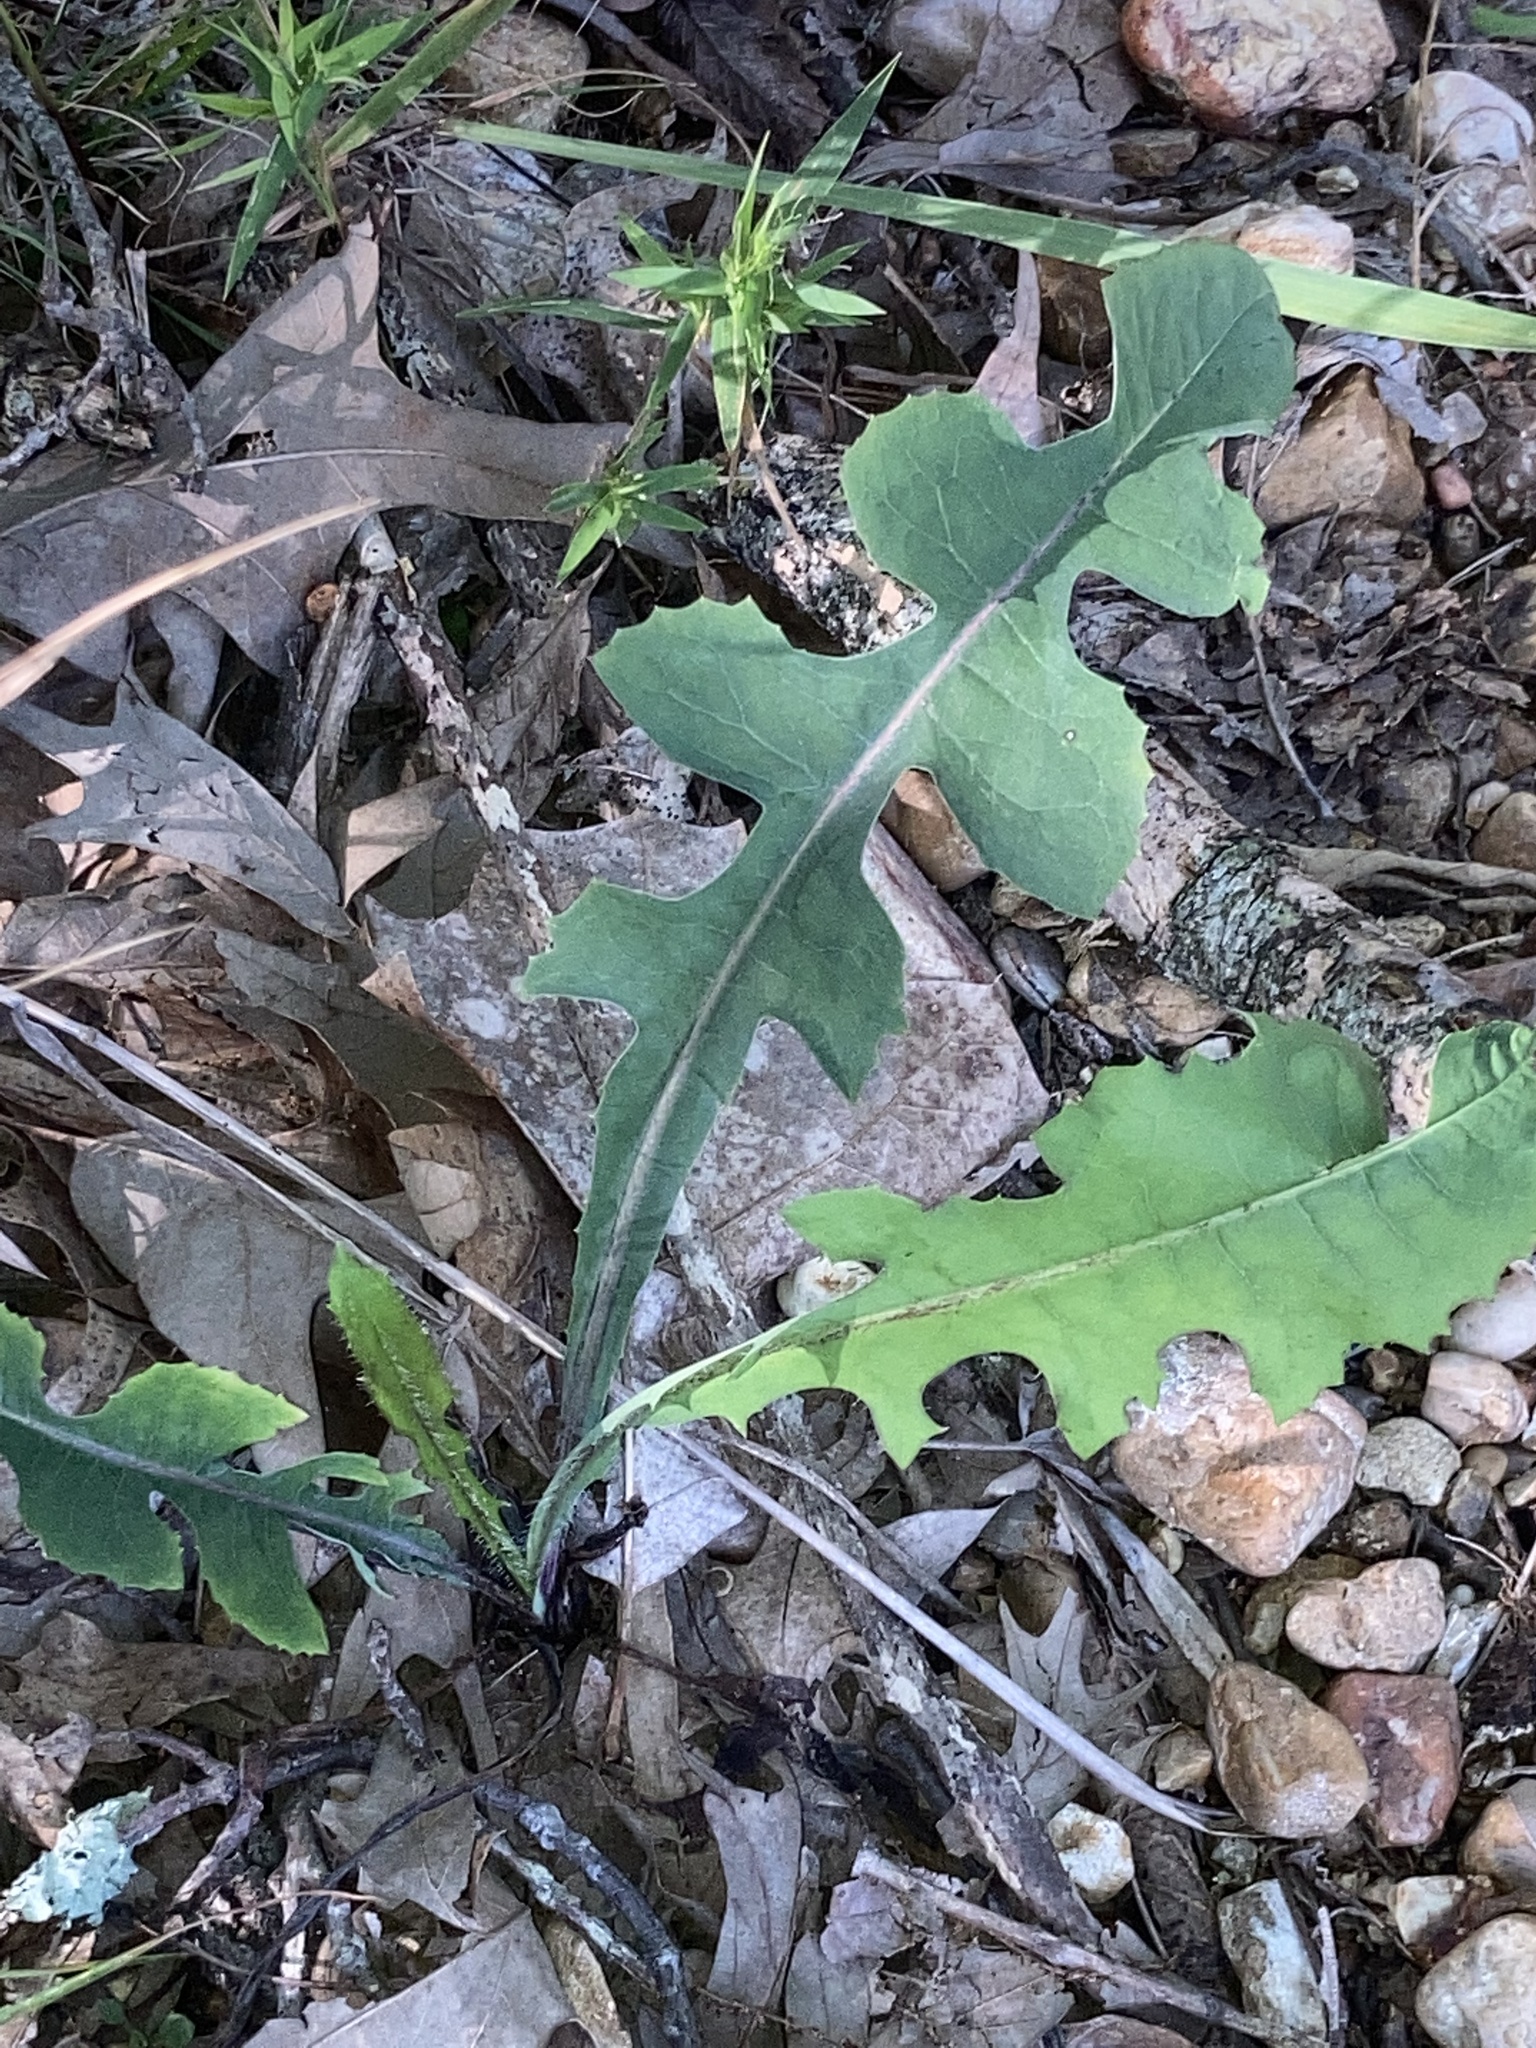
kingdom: Plantae
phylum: Tracheophyta
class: Magnoliopsida
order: Asterales
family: Asteraceae
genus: Lactuca
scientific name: Lactuca hirsuta
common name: Hairy lettuce
